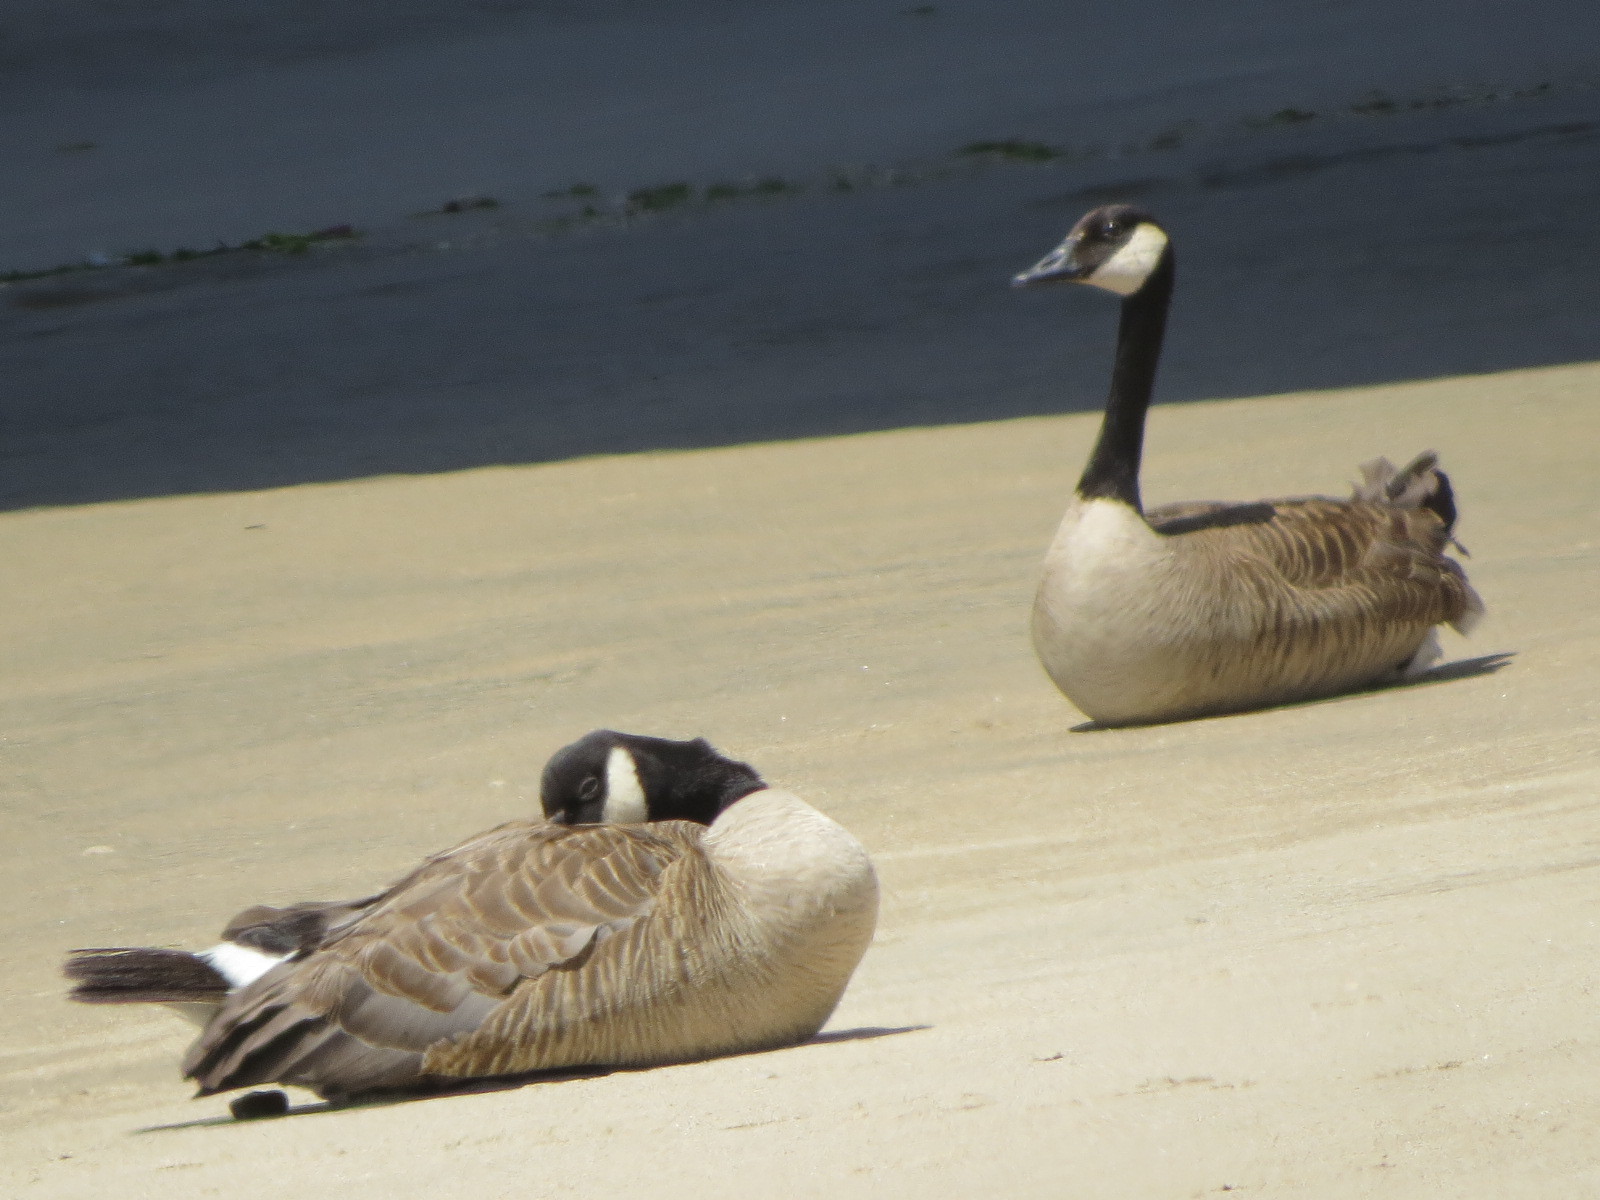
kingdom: Animalia
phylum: Chordata
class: Aves
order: Anseriformes
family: Anatidae
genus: Branta
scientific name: Branta canadensis
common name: Canada goose
